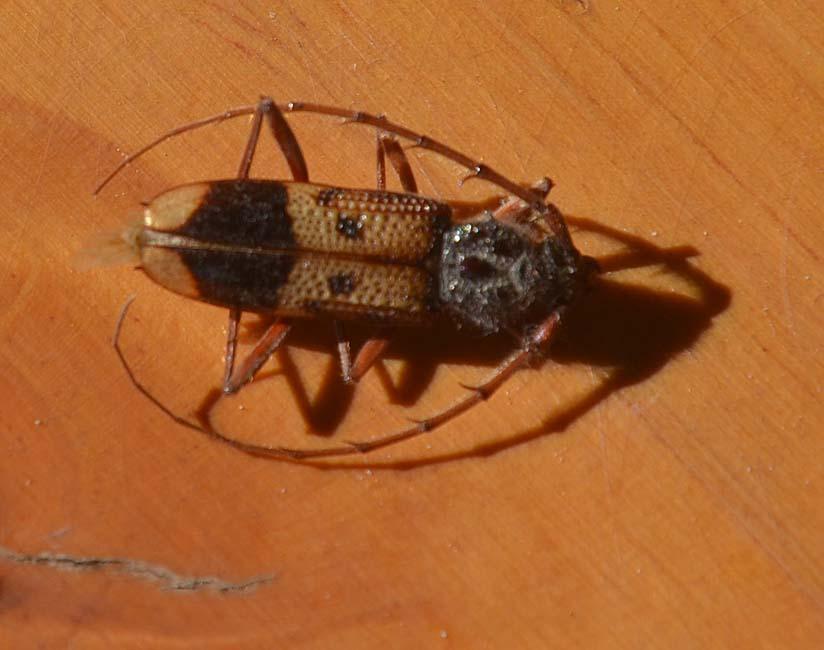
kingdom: Animalia
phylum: Arthropoda
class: Insecta
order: Coleoptera
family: Cerambycidae
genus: Phoracantha
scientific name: Phoracantha recurva
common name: Eucalyptus longhorned borer
